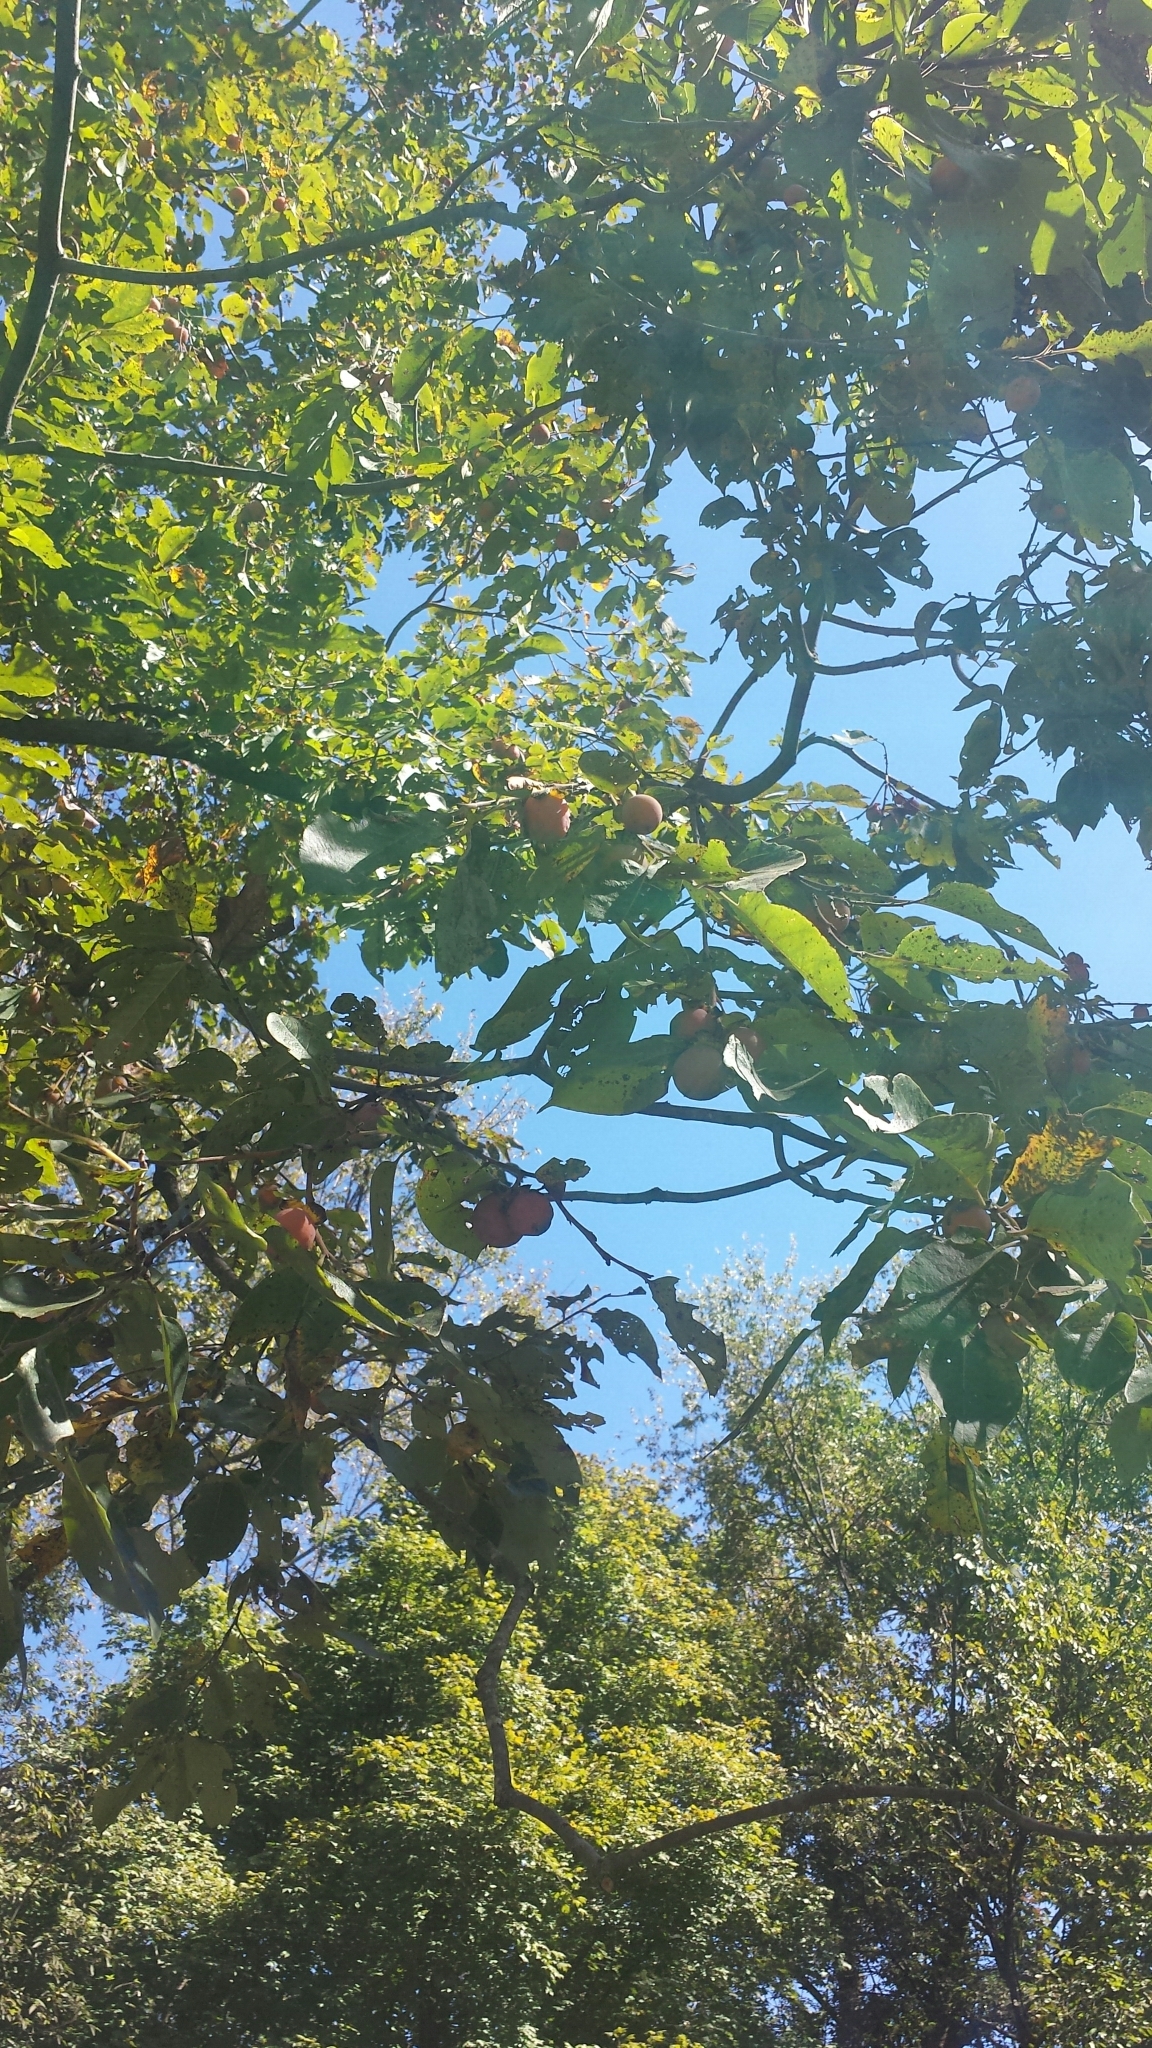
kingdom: Plantae
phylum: Tracheophyta
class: Magnoliopsida
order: Ericales
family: Ebenaceae
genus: Diospyros
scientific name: Diospyros virginiana
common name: Persimmon
